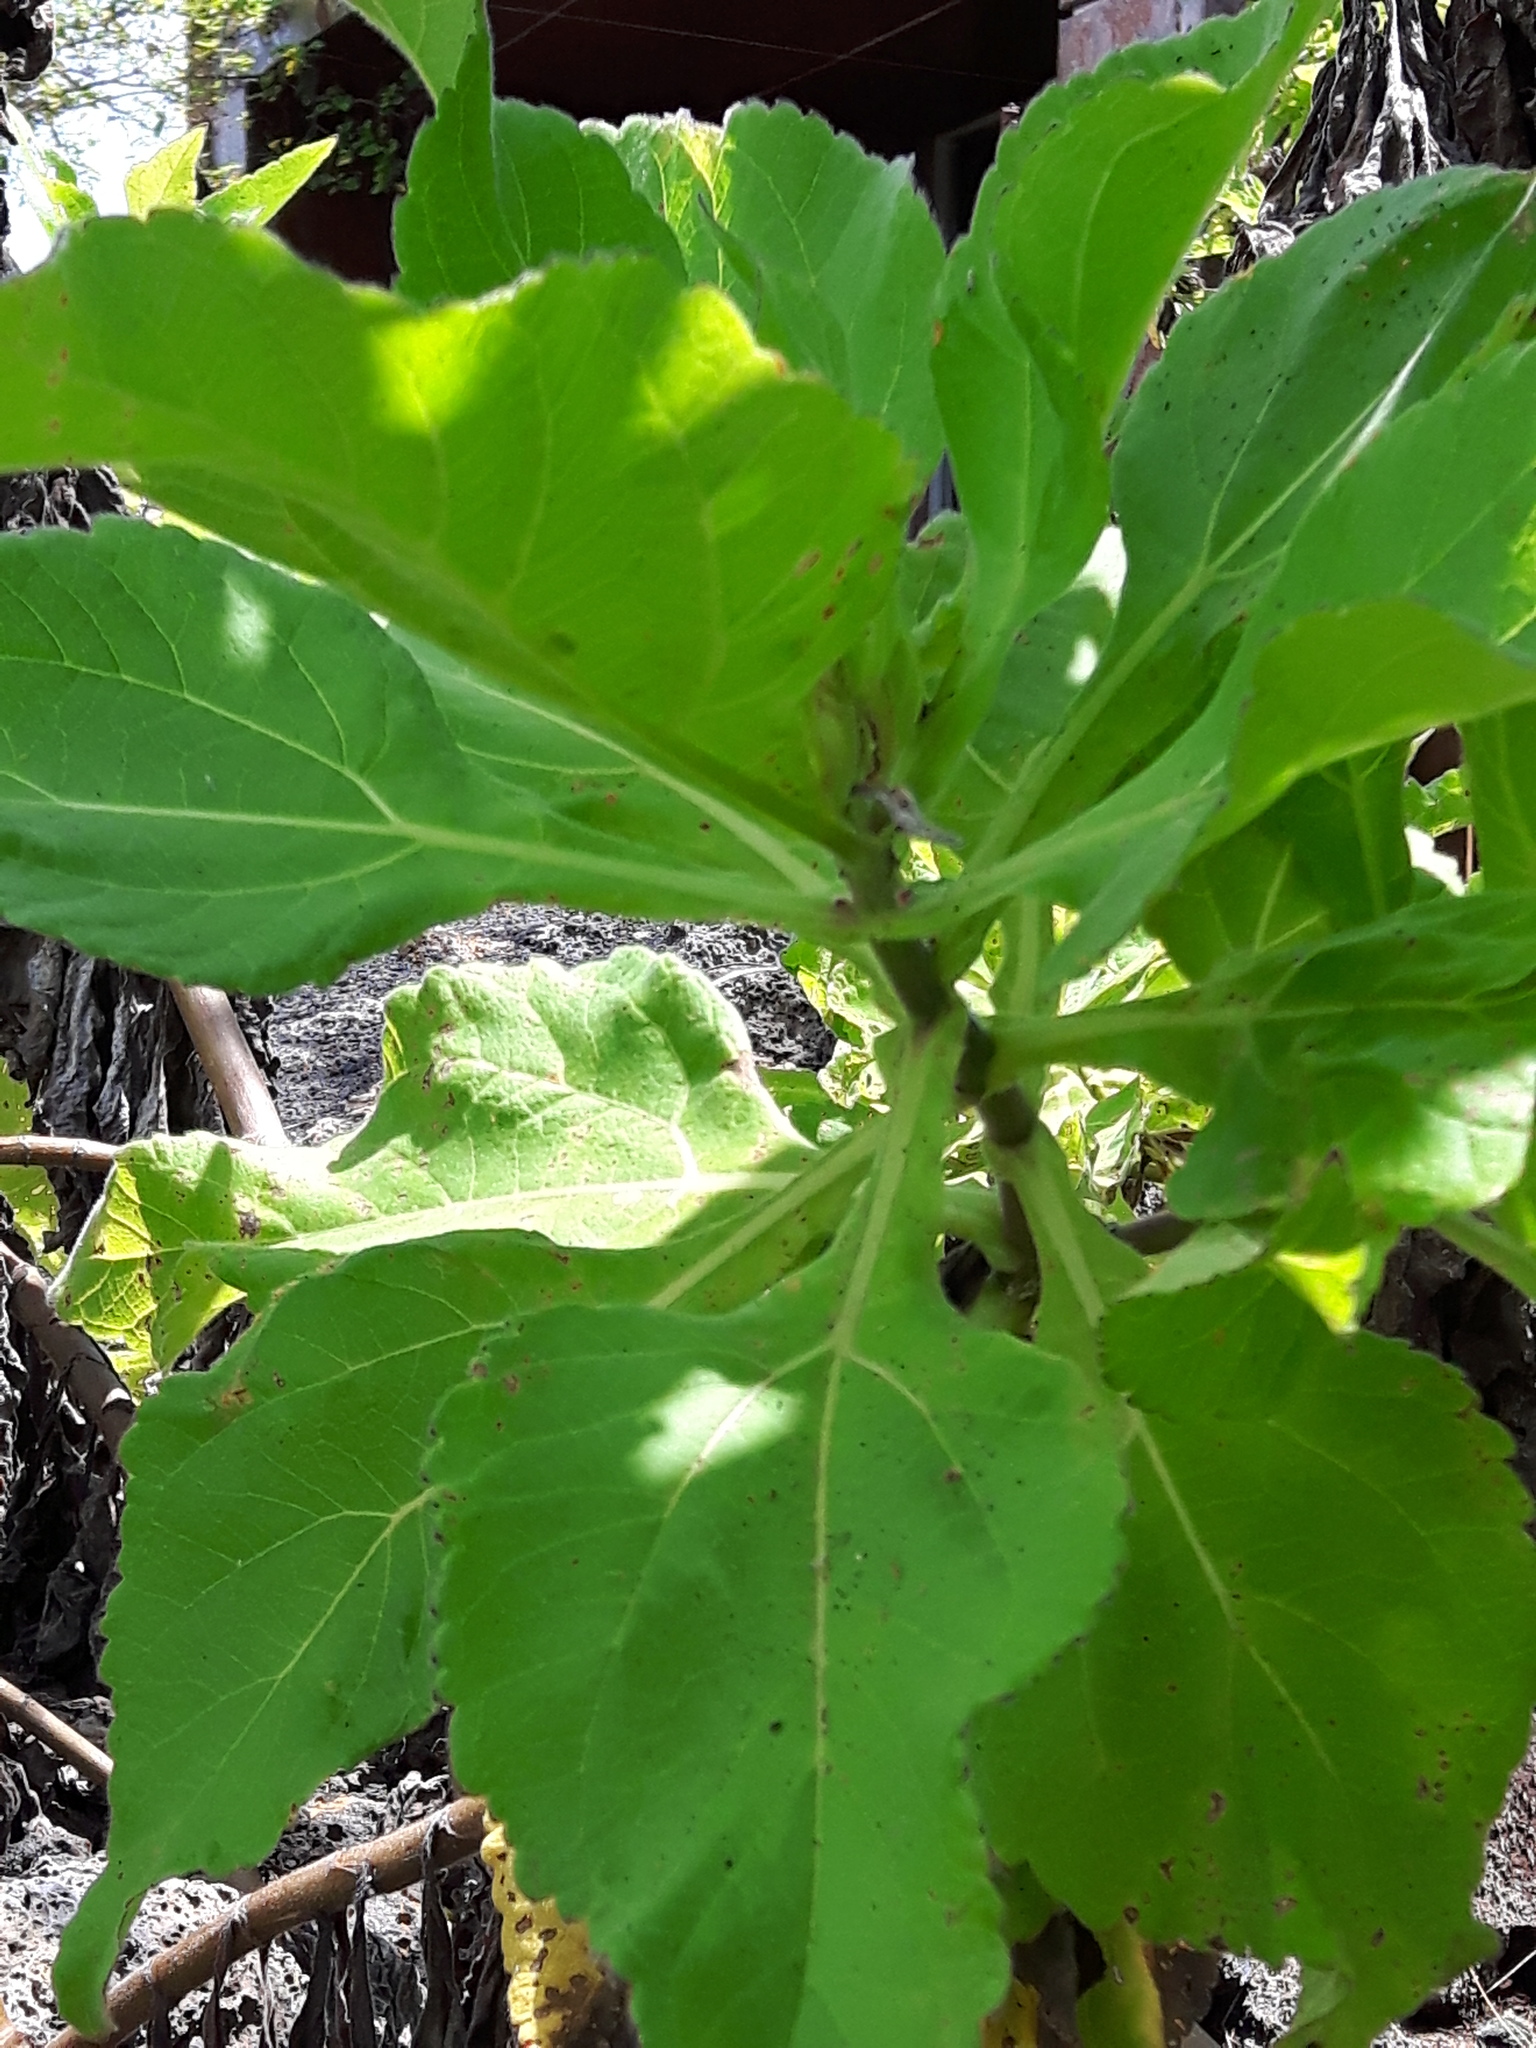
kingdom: Plantae
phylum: Tracheophyta
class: Magnoliopsida
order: Asterales
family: Asteraceae
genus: Scalesia
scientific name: Scalesia affinis
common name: Radiate-headed scalesia
